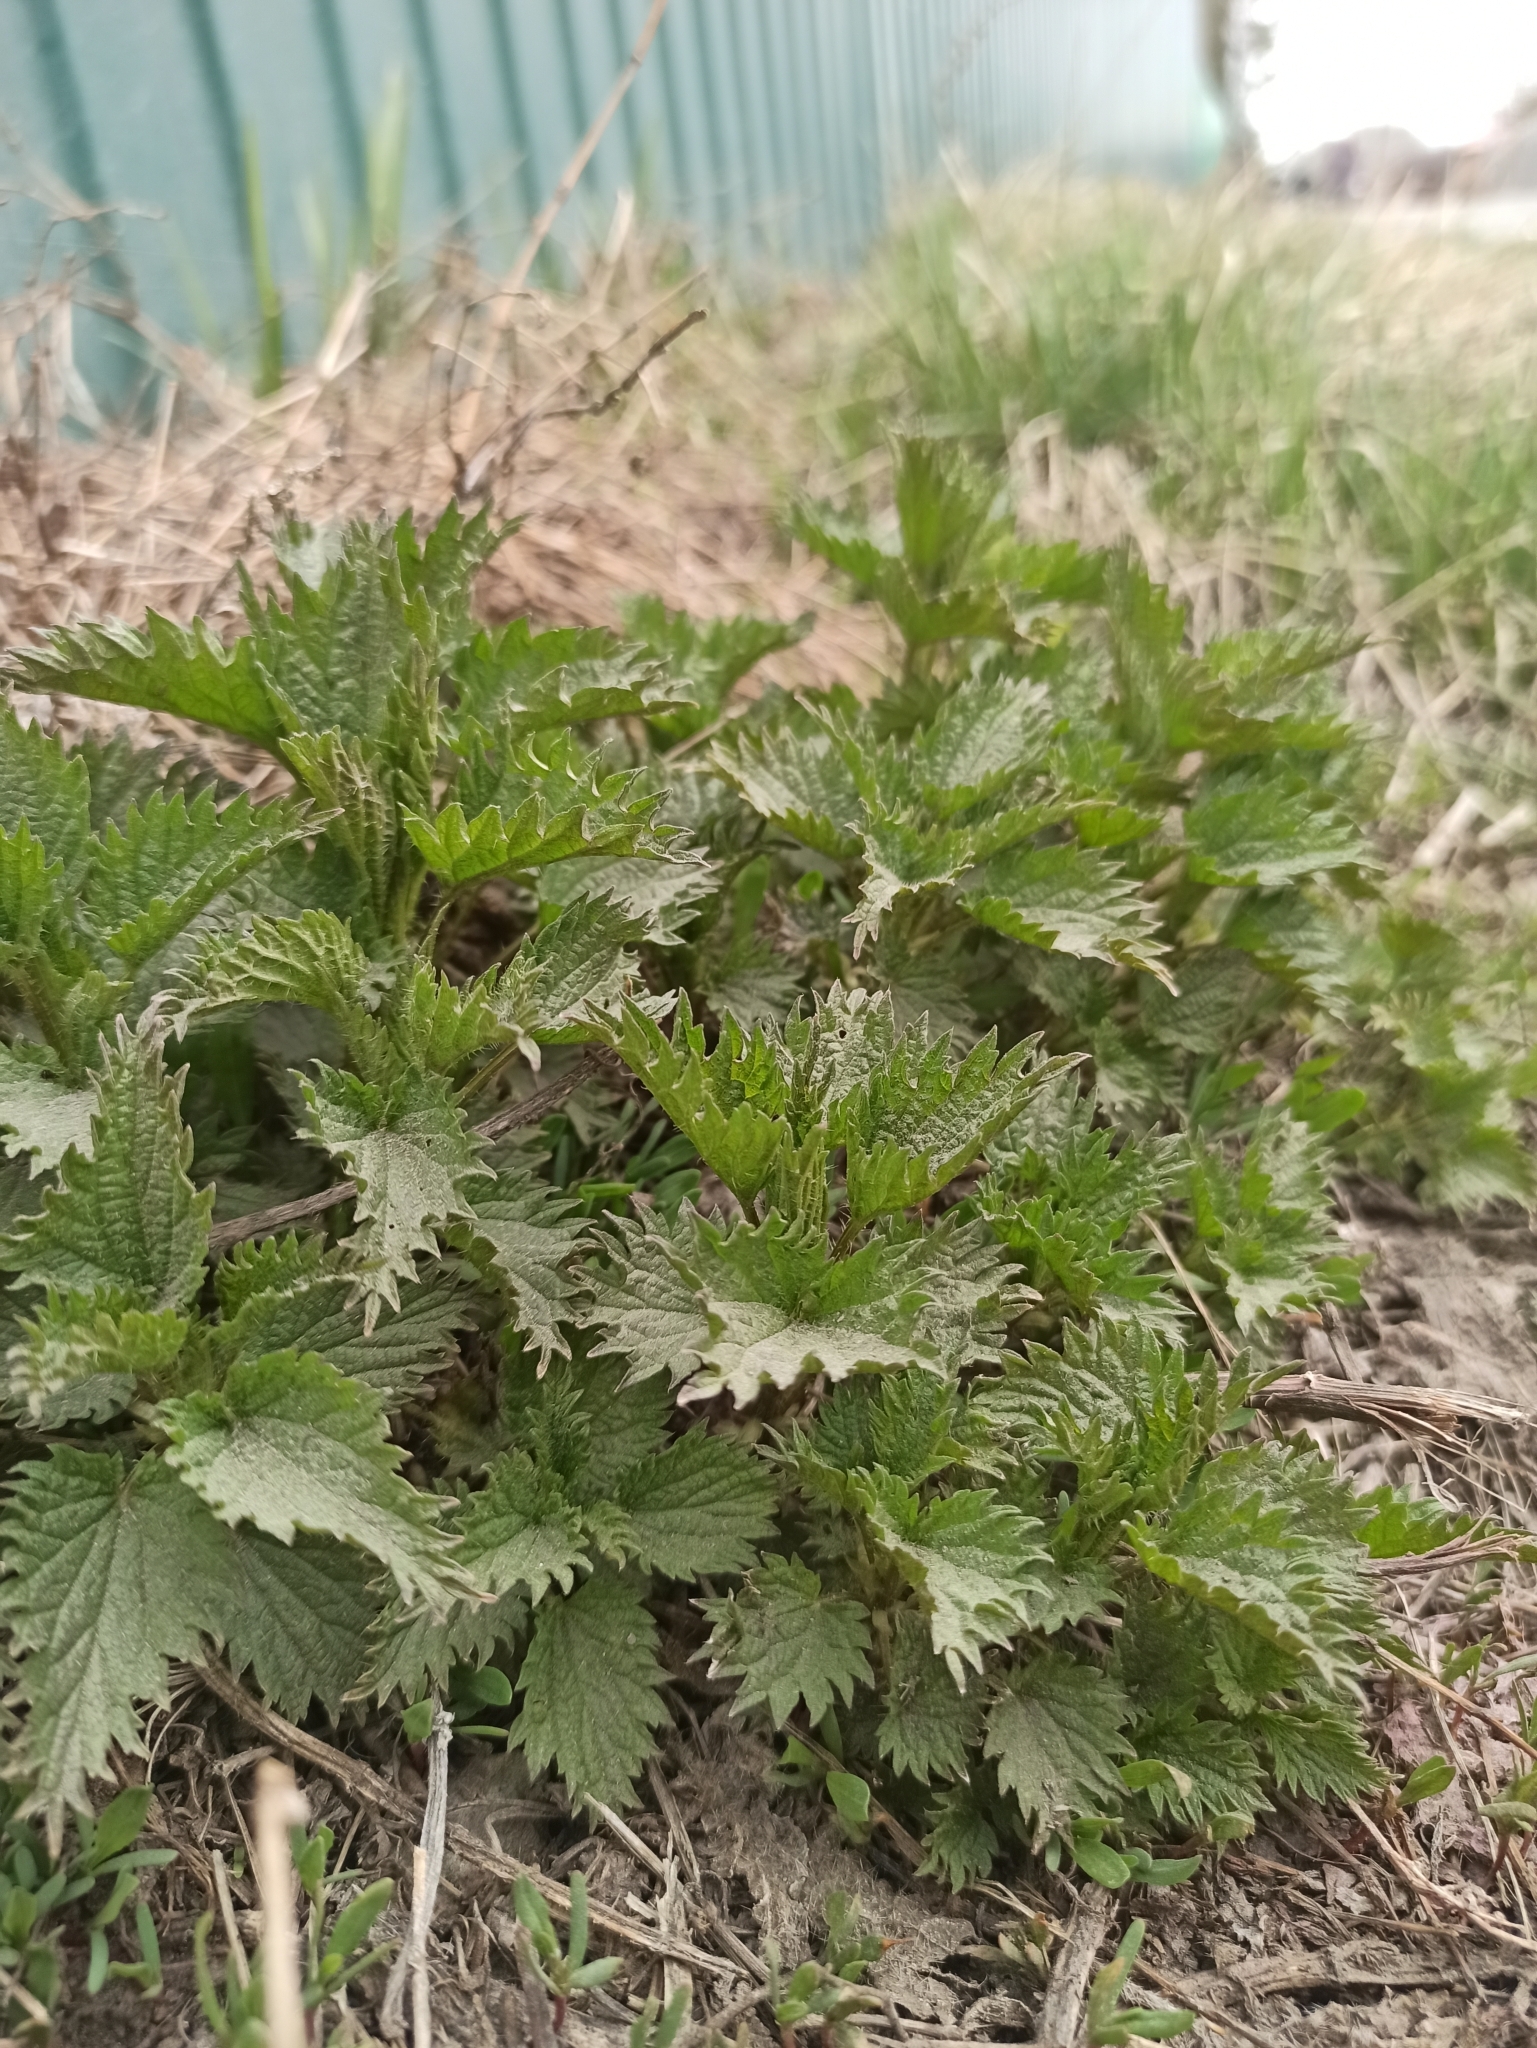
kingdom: Plantae
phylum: Tracheophyta
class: Magnoliopsida
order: Rosales
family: Urticaceae
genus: Urtica
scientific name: Urtica dioica
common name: Common nettle
